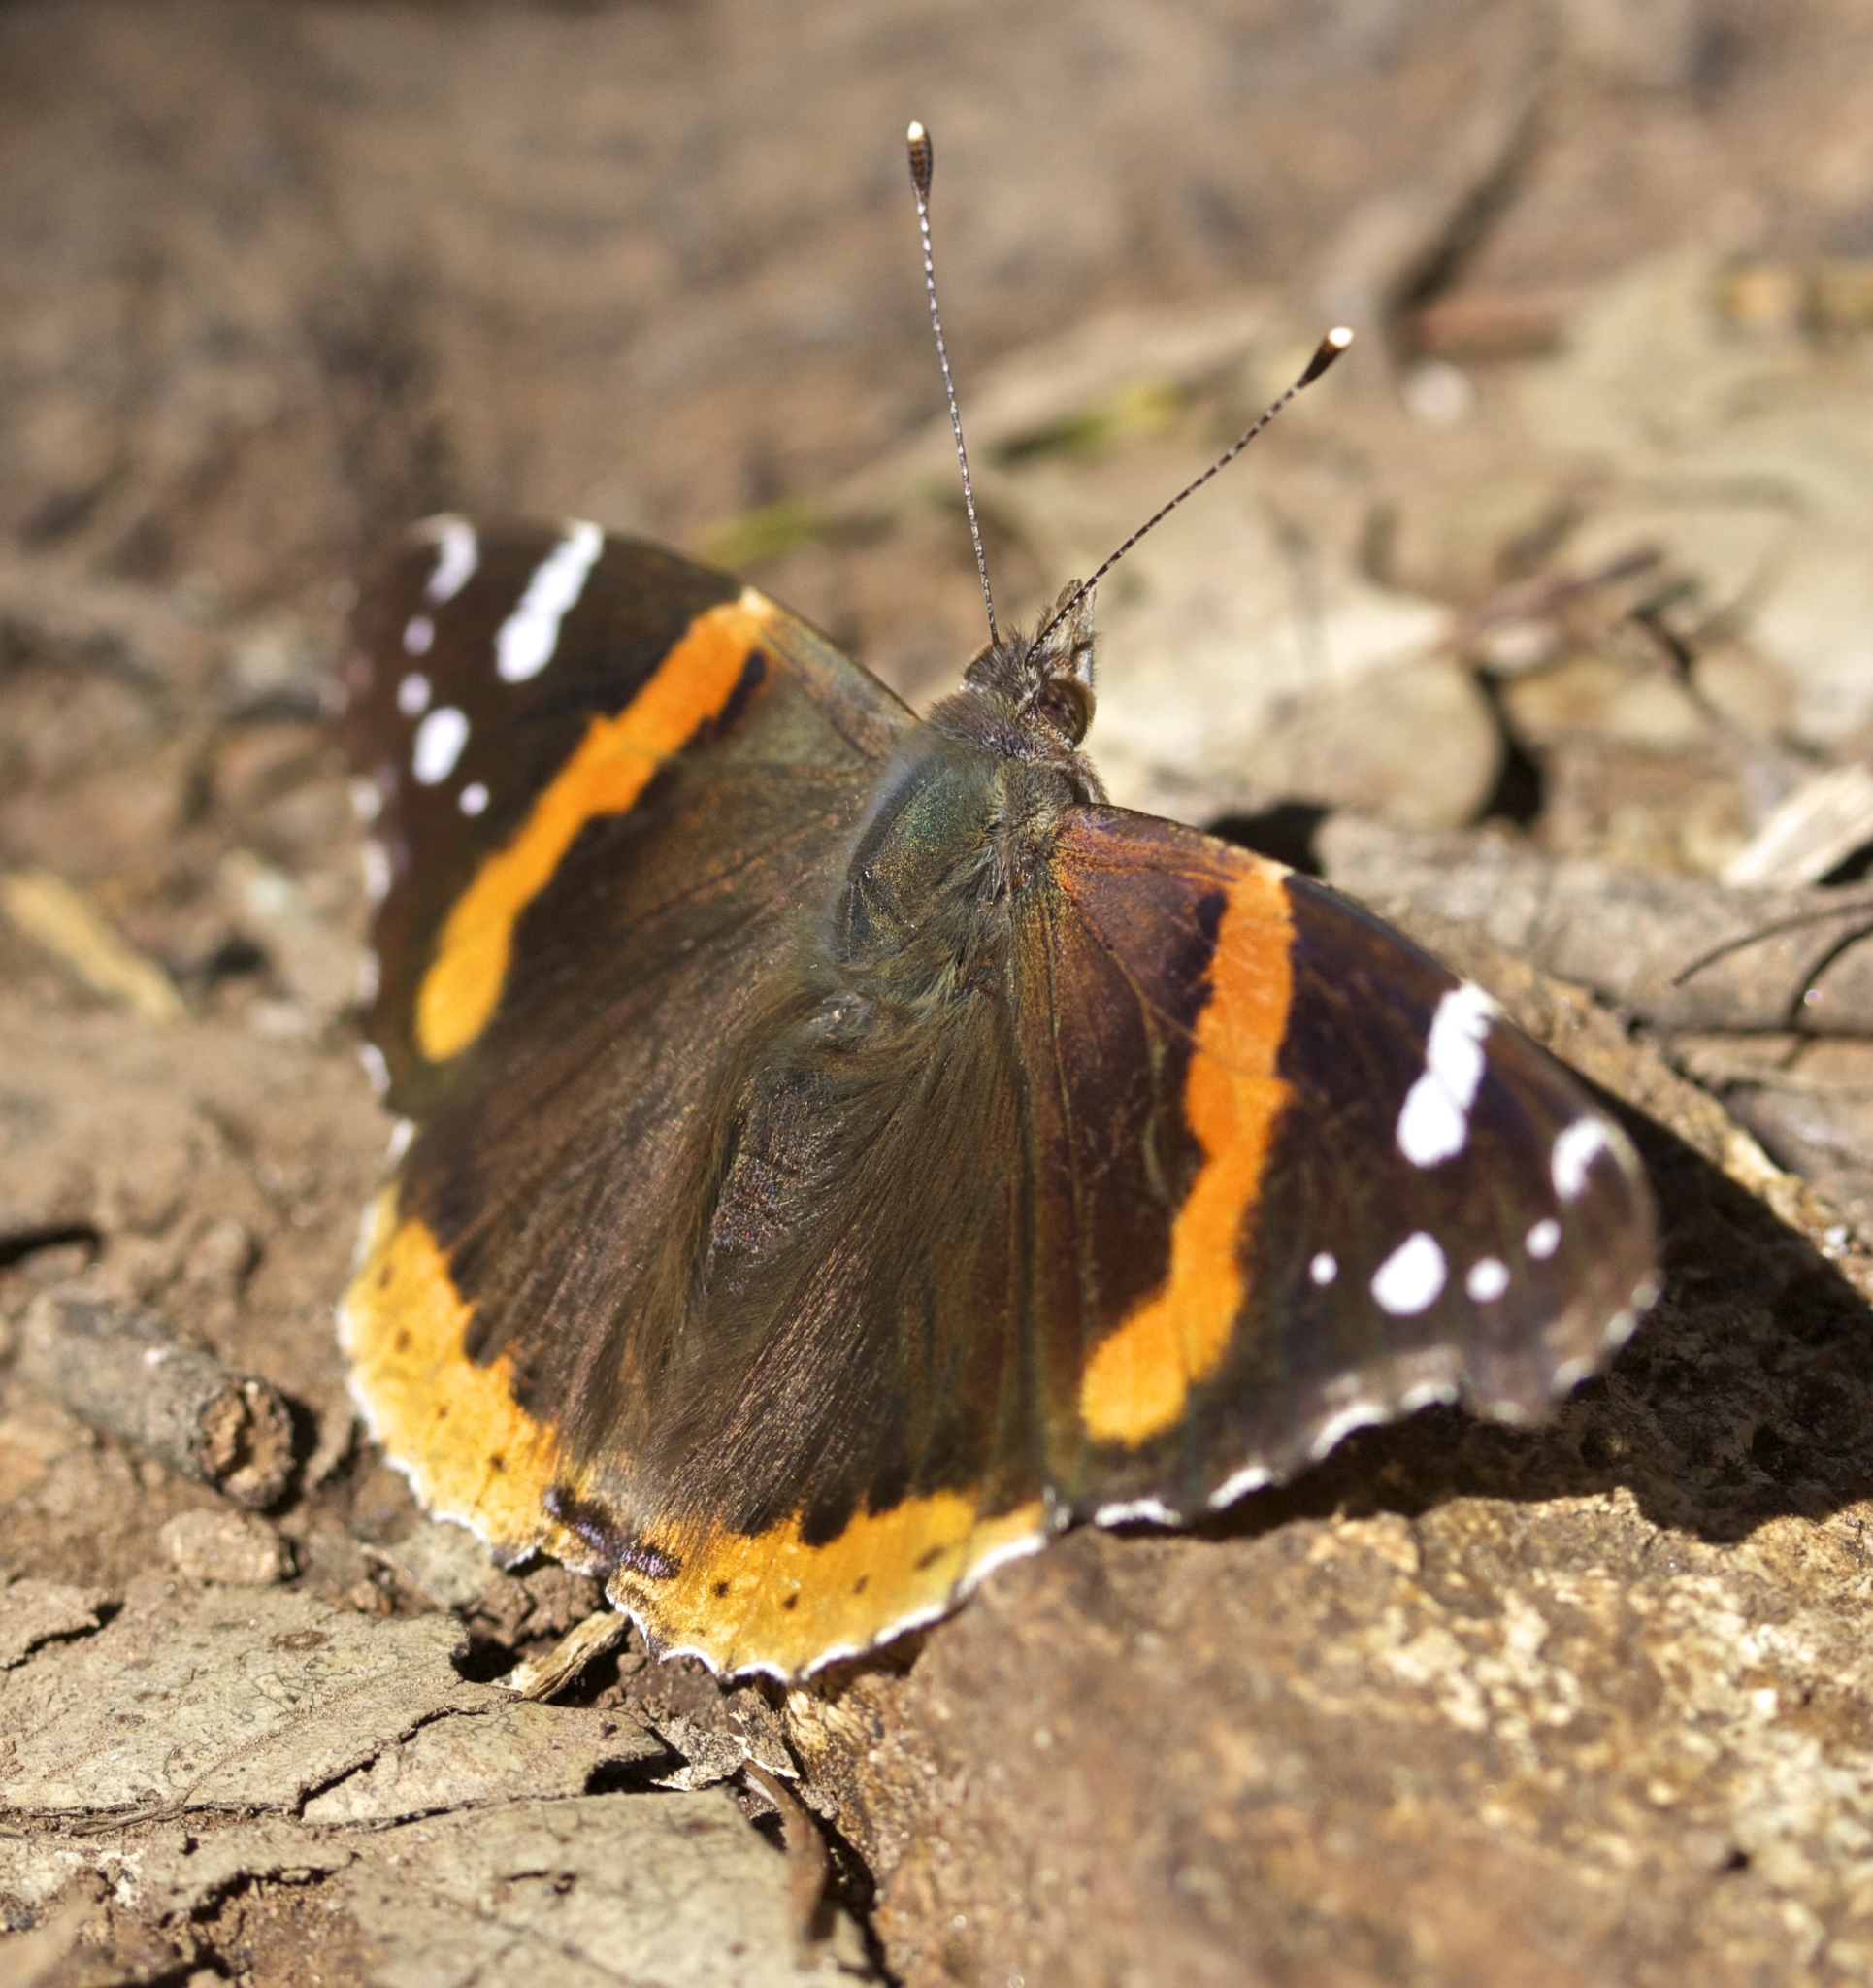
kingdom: Animalia
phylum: Arthropoda
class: Insecta
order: Lepidoptera
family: Nymphalidae
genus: Vanessa
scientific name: Vanessa atalanta
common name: Red admiral
